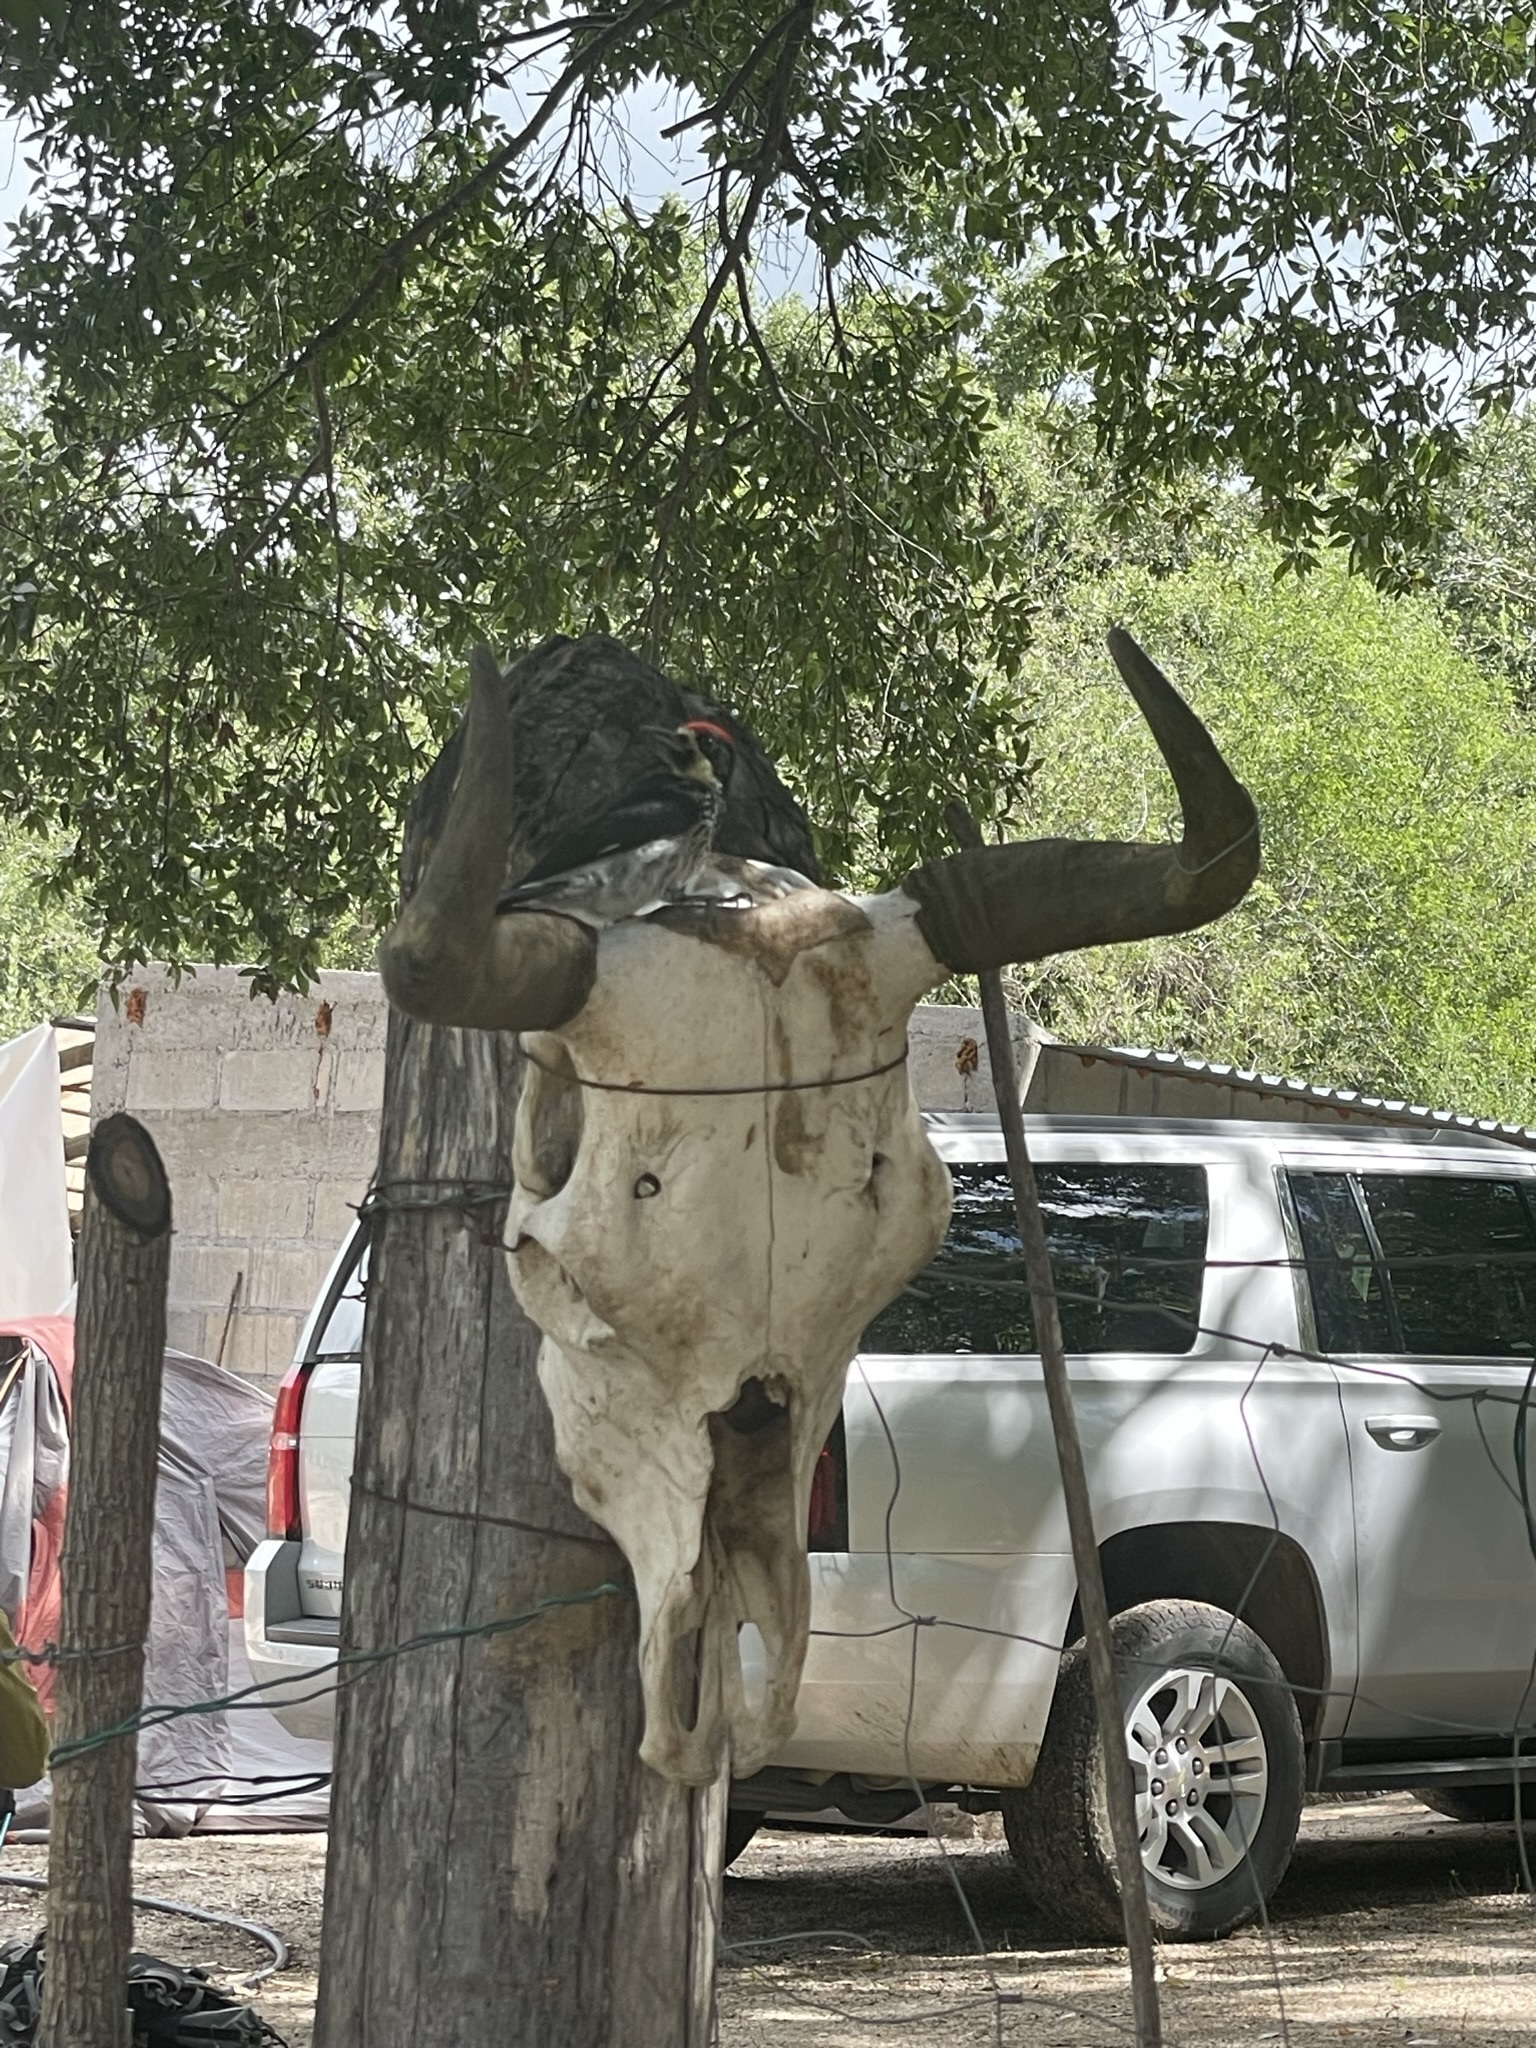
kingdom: Animalia
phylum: Chordata
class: Aves
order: Piciformes
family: Picidae
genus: Melanerpes
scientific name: Melanerpes formicivorus
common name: Acorn woodpecker
